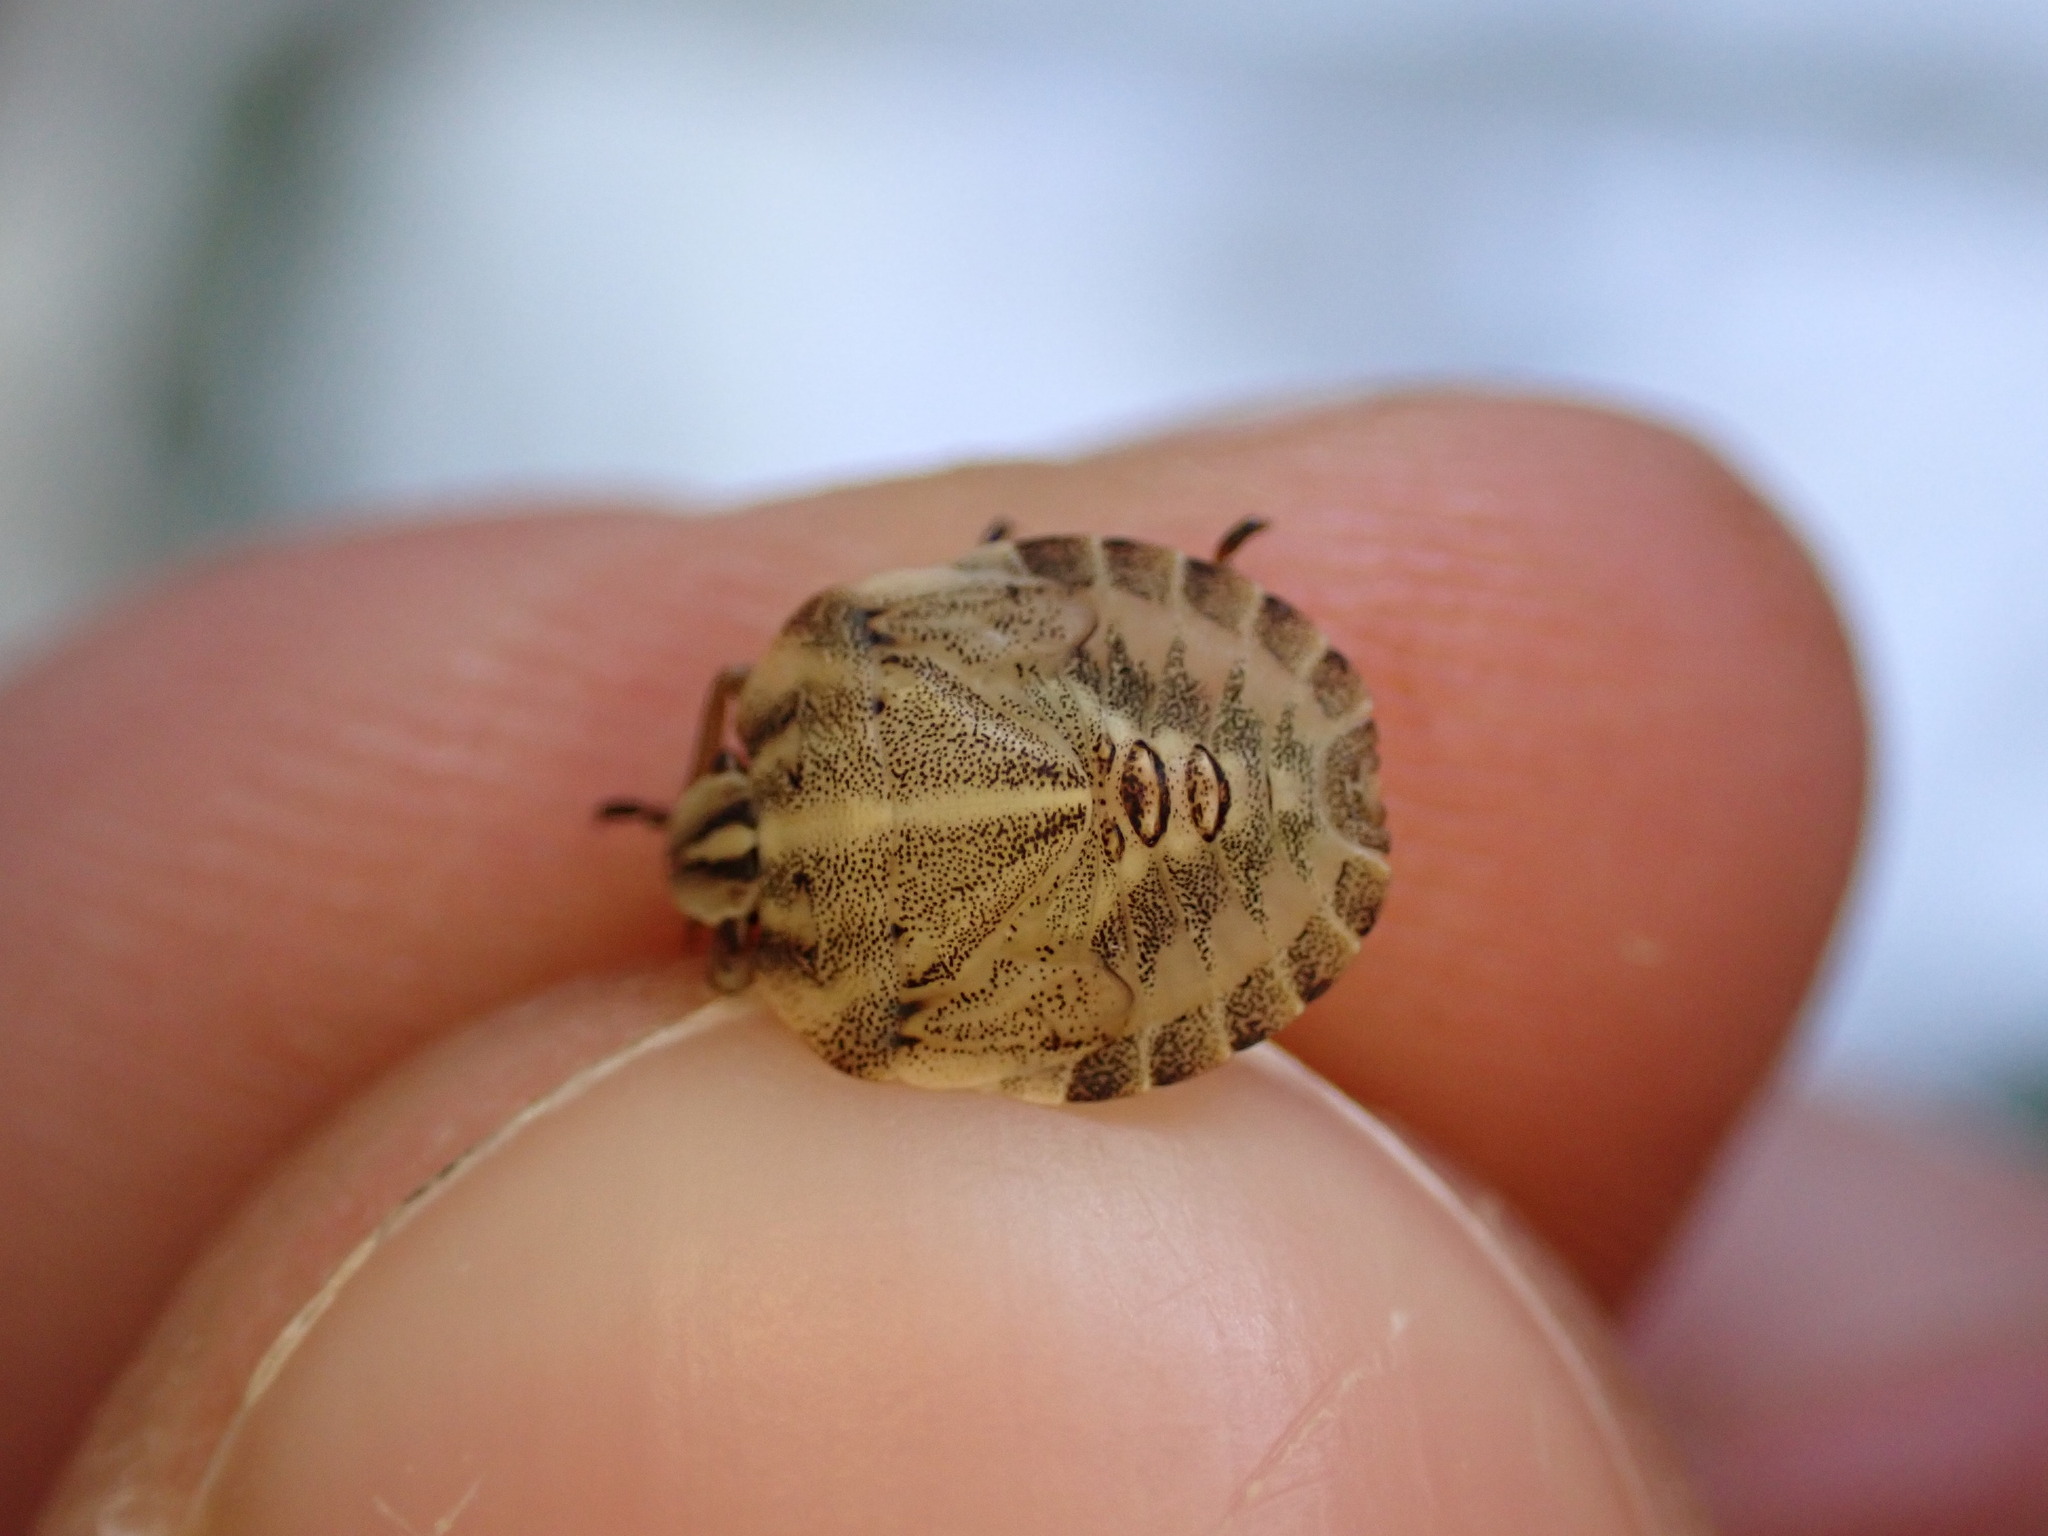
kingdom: Animalia
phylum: Arthropoda
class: Insecta
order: Hemiptera
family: Pentatomidae
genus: Graphosoma
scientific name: Graphosoma italicum
